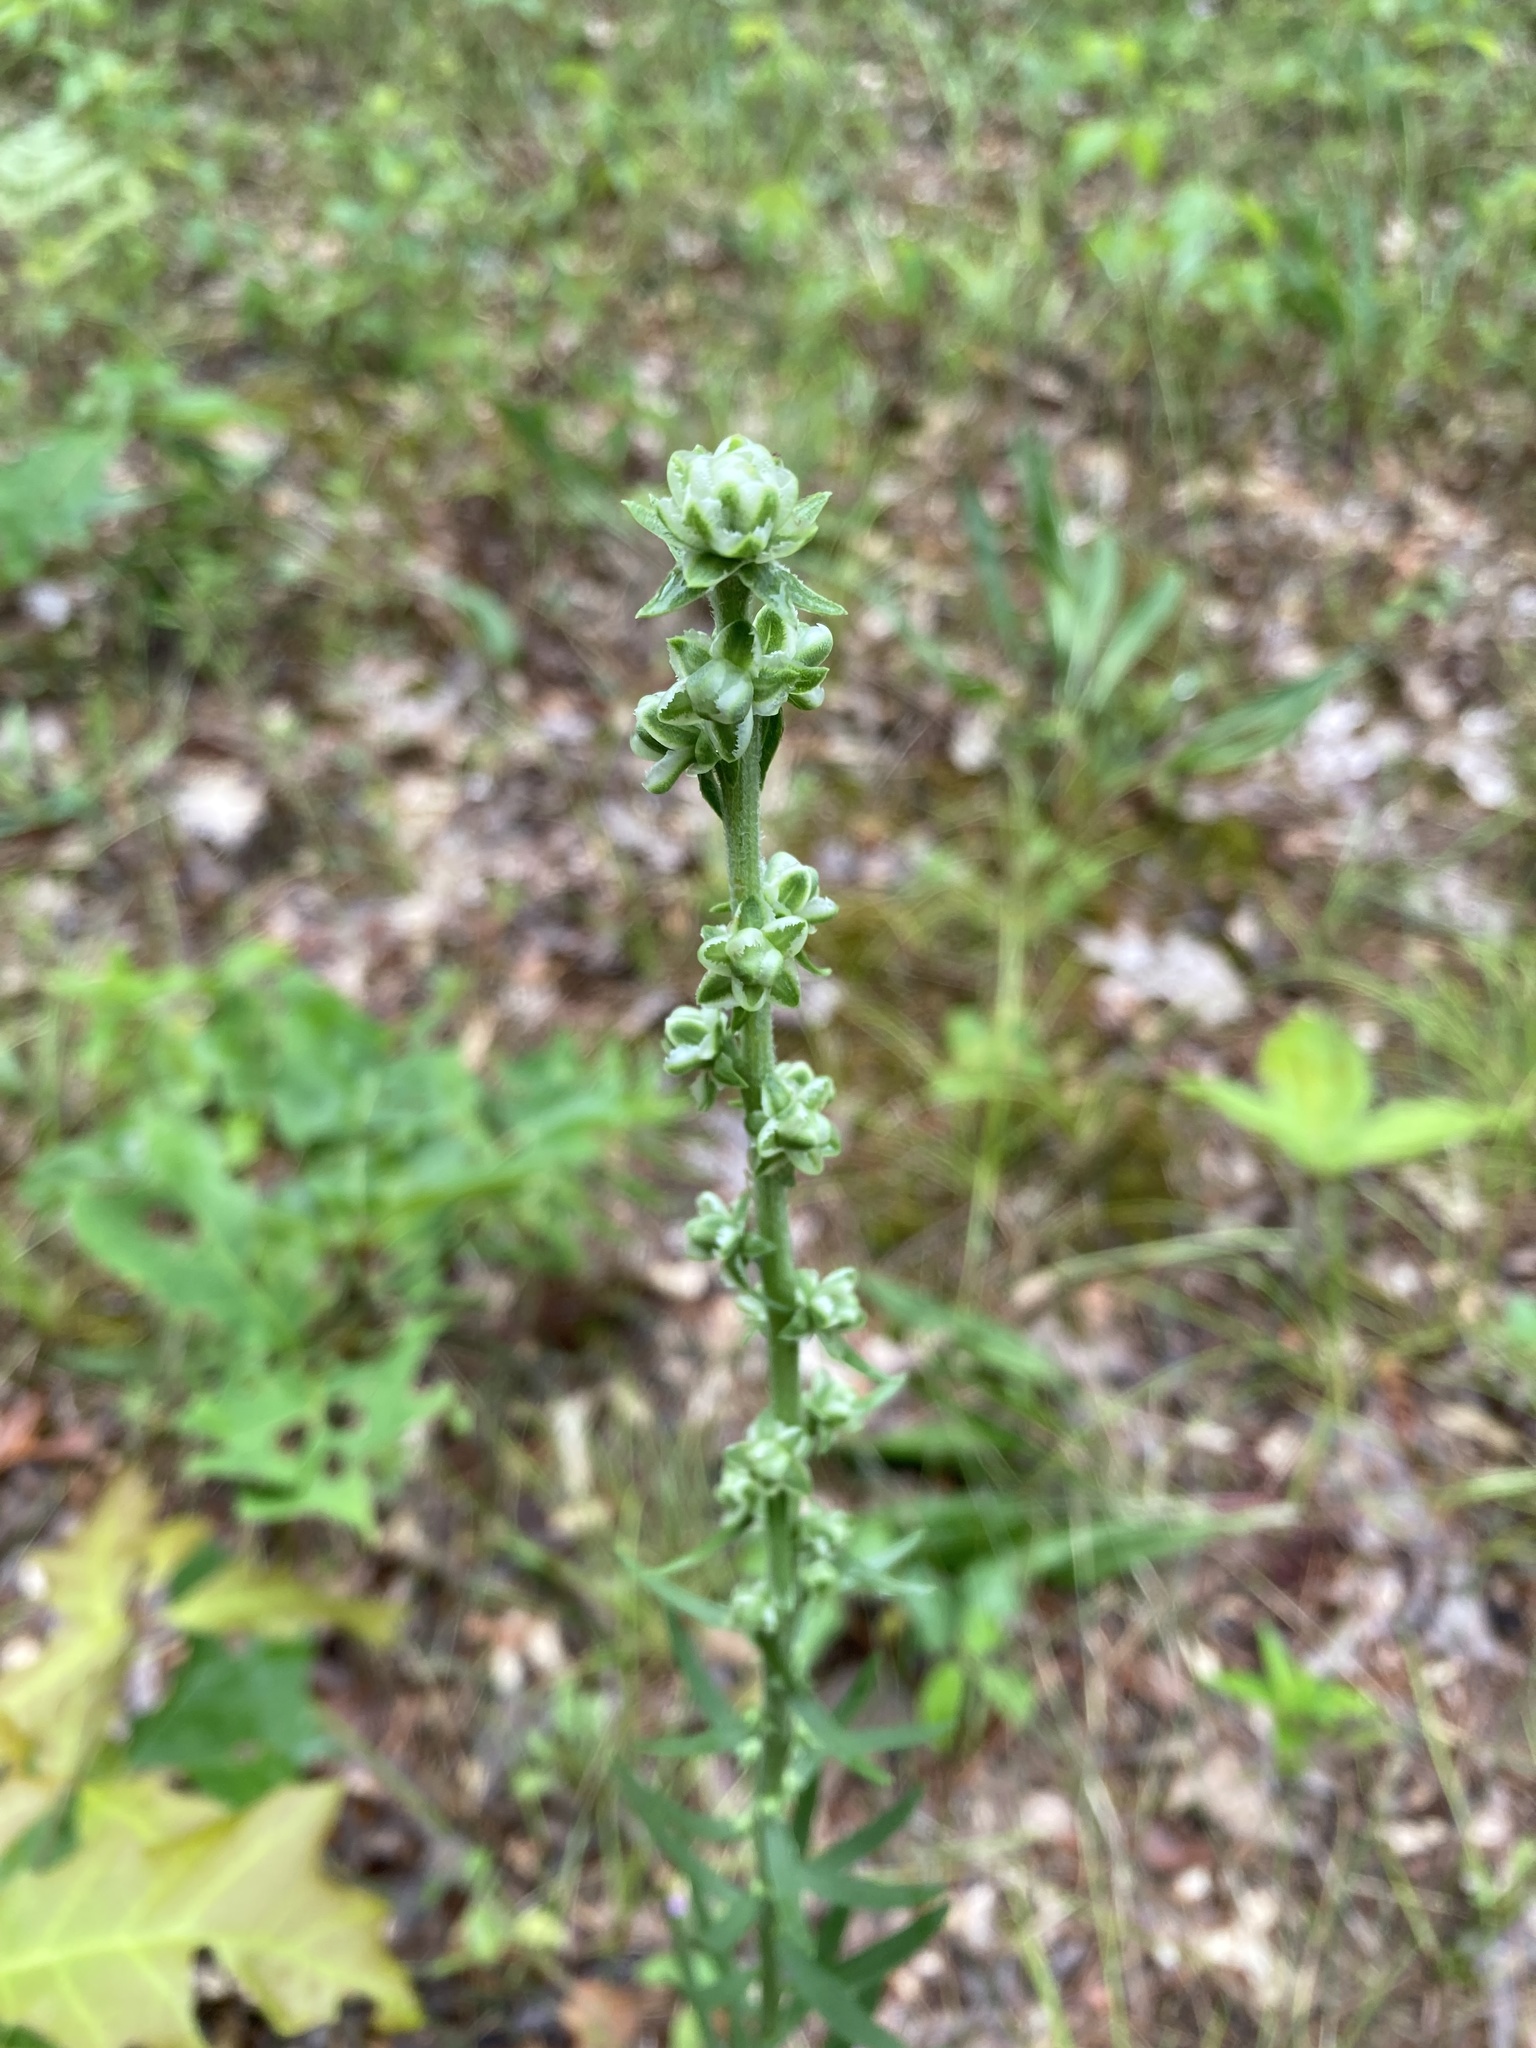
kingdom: Plantae
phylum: Tracheophyta
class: Magnoliopsida
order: Asterales
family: Asteraceae
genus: Liatris
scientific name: Liatris aspera
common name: Lacerate blazing-star
